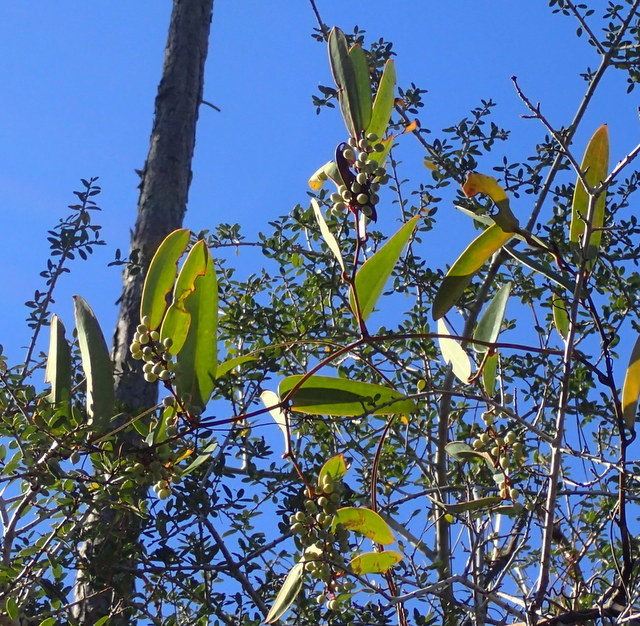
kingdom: Plantae
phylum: Tracheophyta
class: Liliopsida
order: Liliales
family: Smilacaceae
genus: Smilax
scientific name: Smilax laurifolia
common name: Bamboovine
